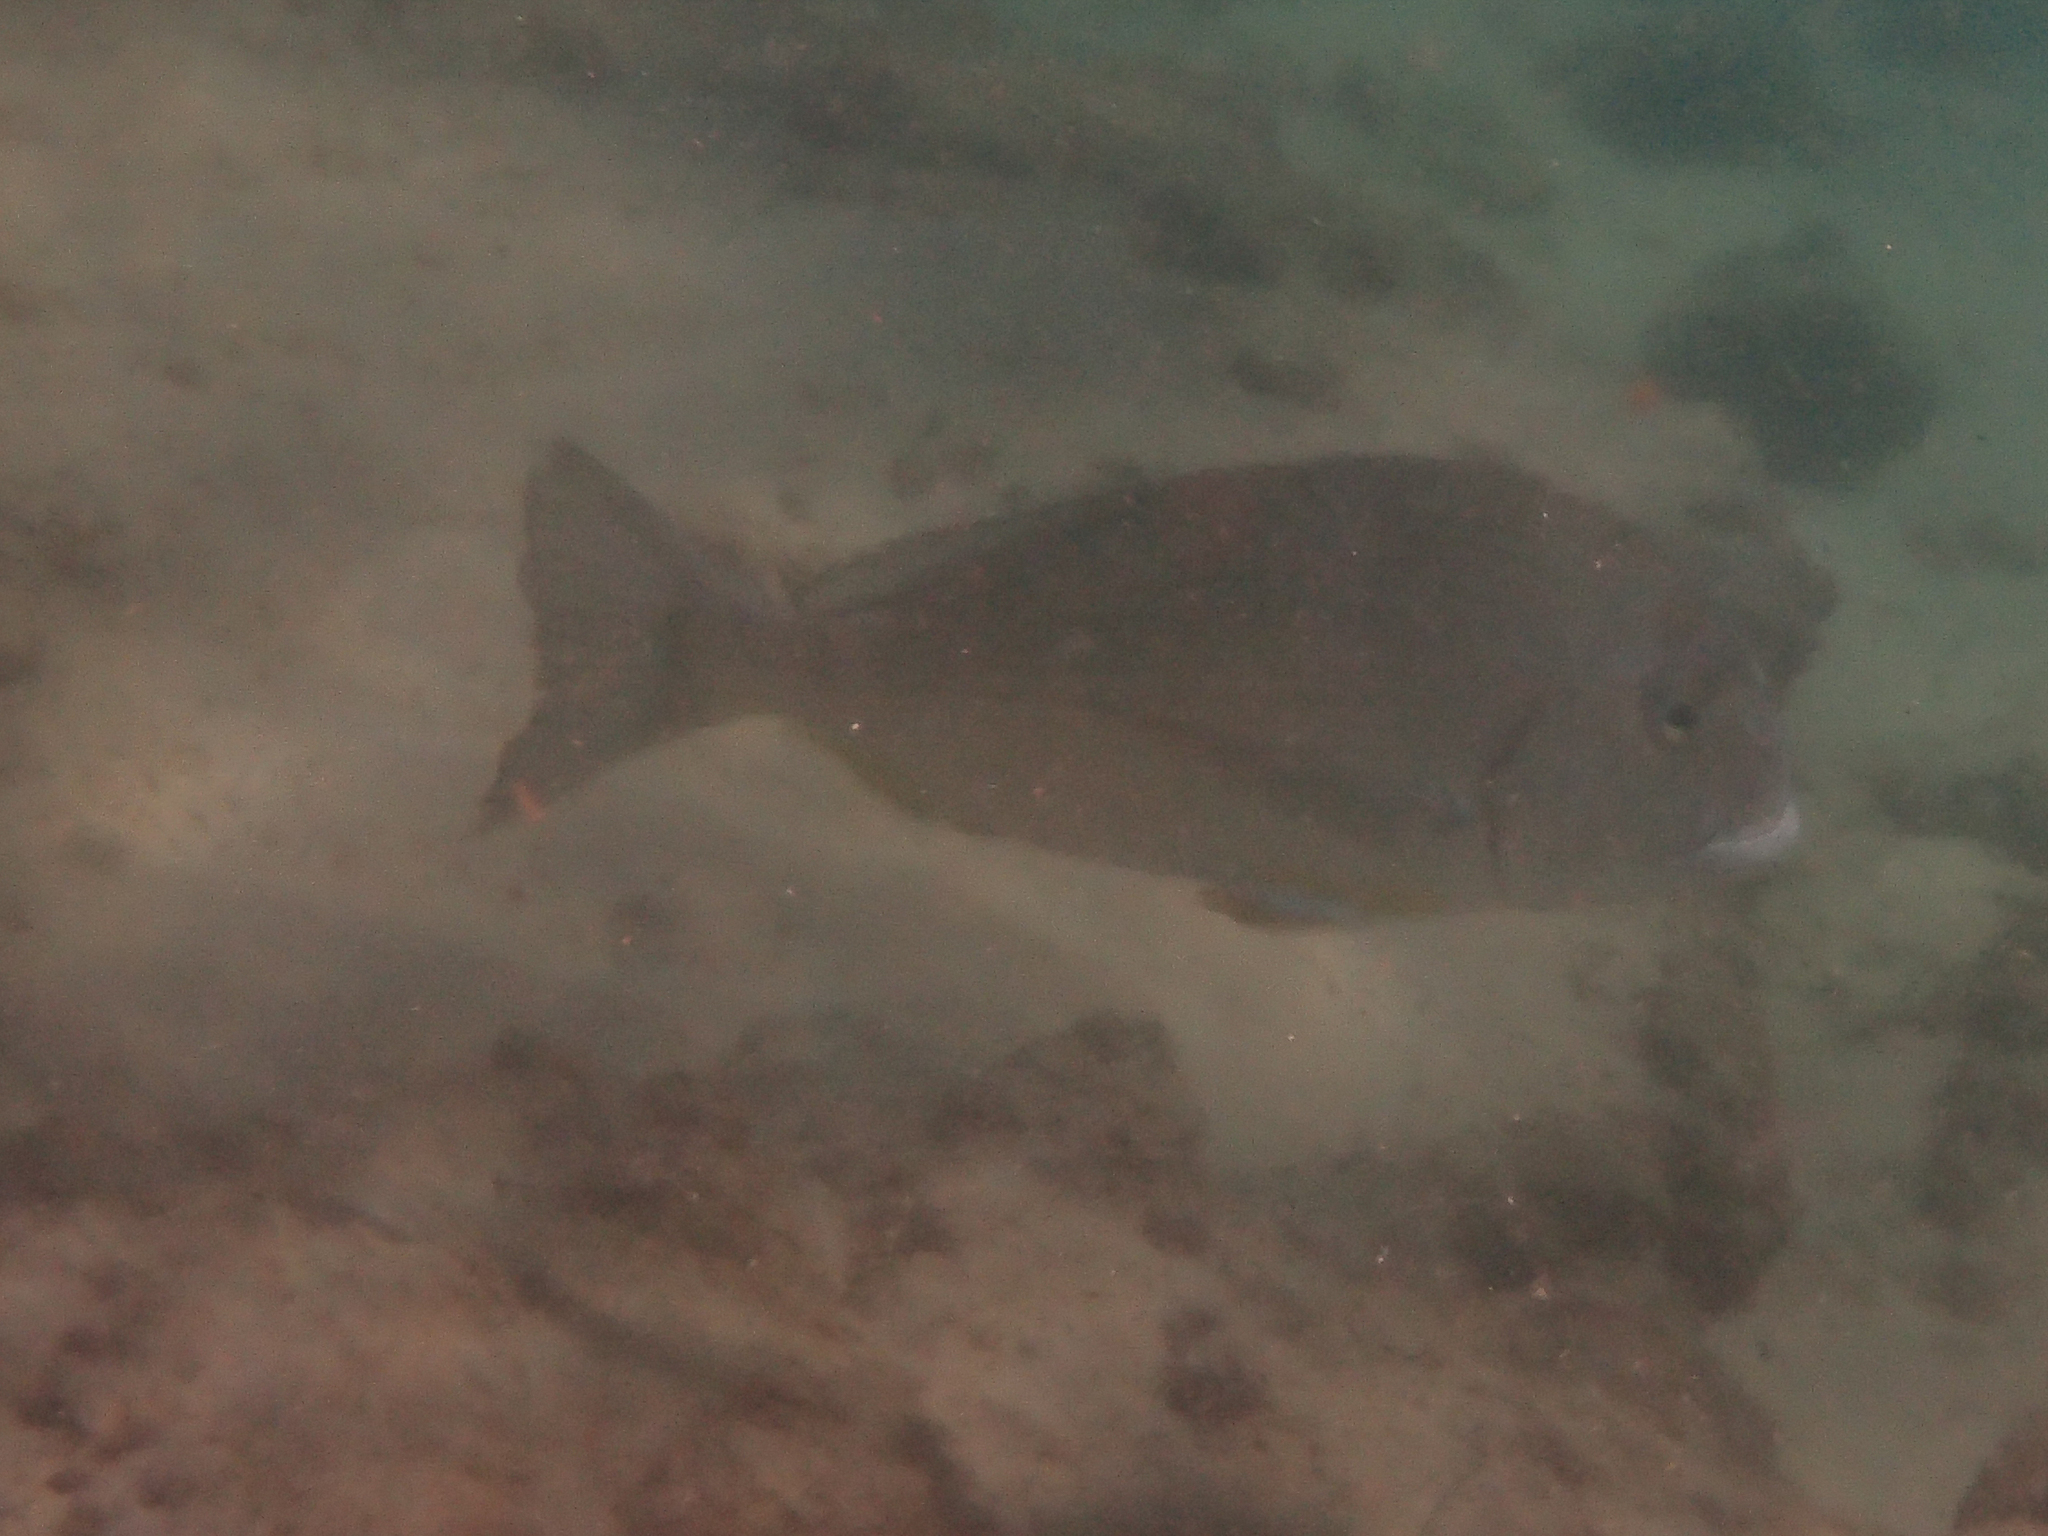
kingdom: Animalia
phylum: Chordata
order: Perciformes
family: Sparidae
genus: Rhabdosargus
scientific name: Rhabdosargus sarba
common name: Goldlined seabream
